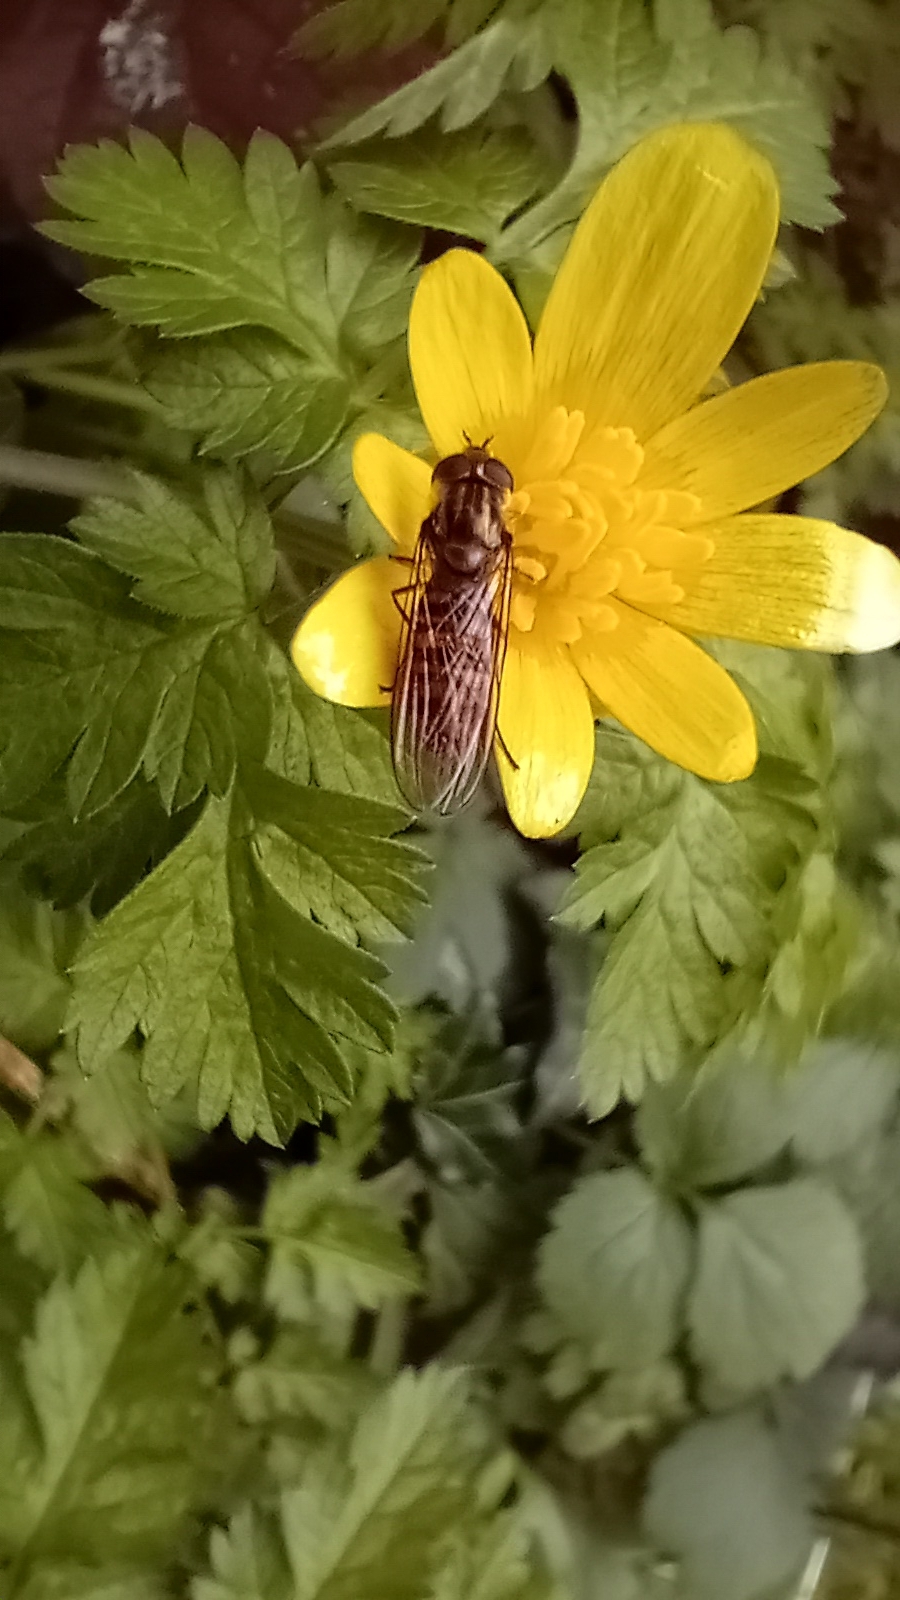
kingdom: Animalia
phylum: Arthropoda
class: Insecta
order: Diptera
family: Syrphidae
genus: Episyrphus
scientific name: Episyrphus balteatus
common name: Marmalade hoverfly
